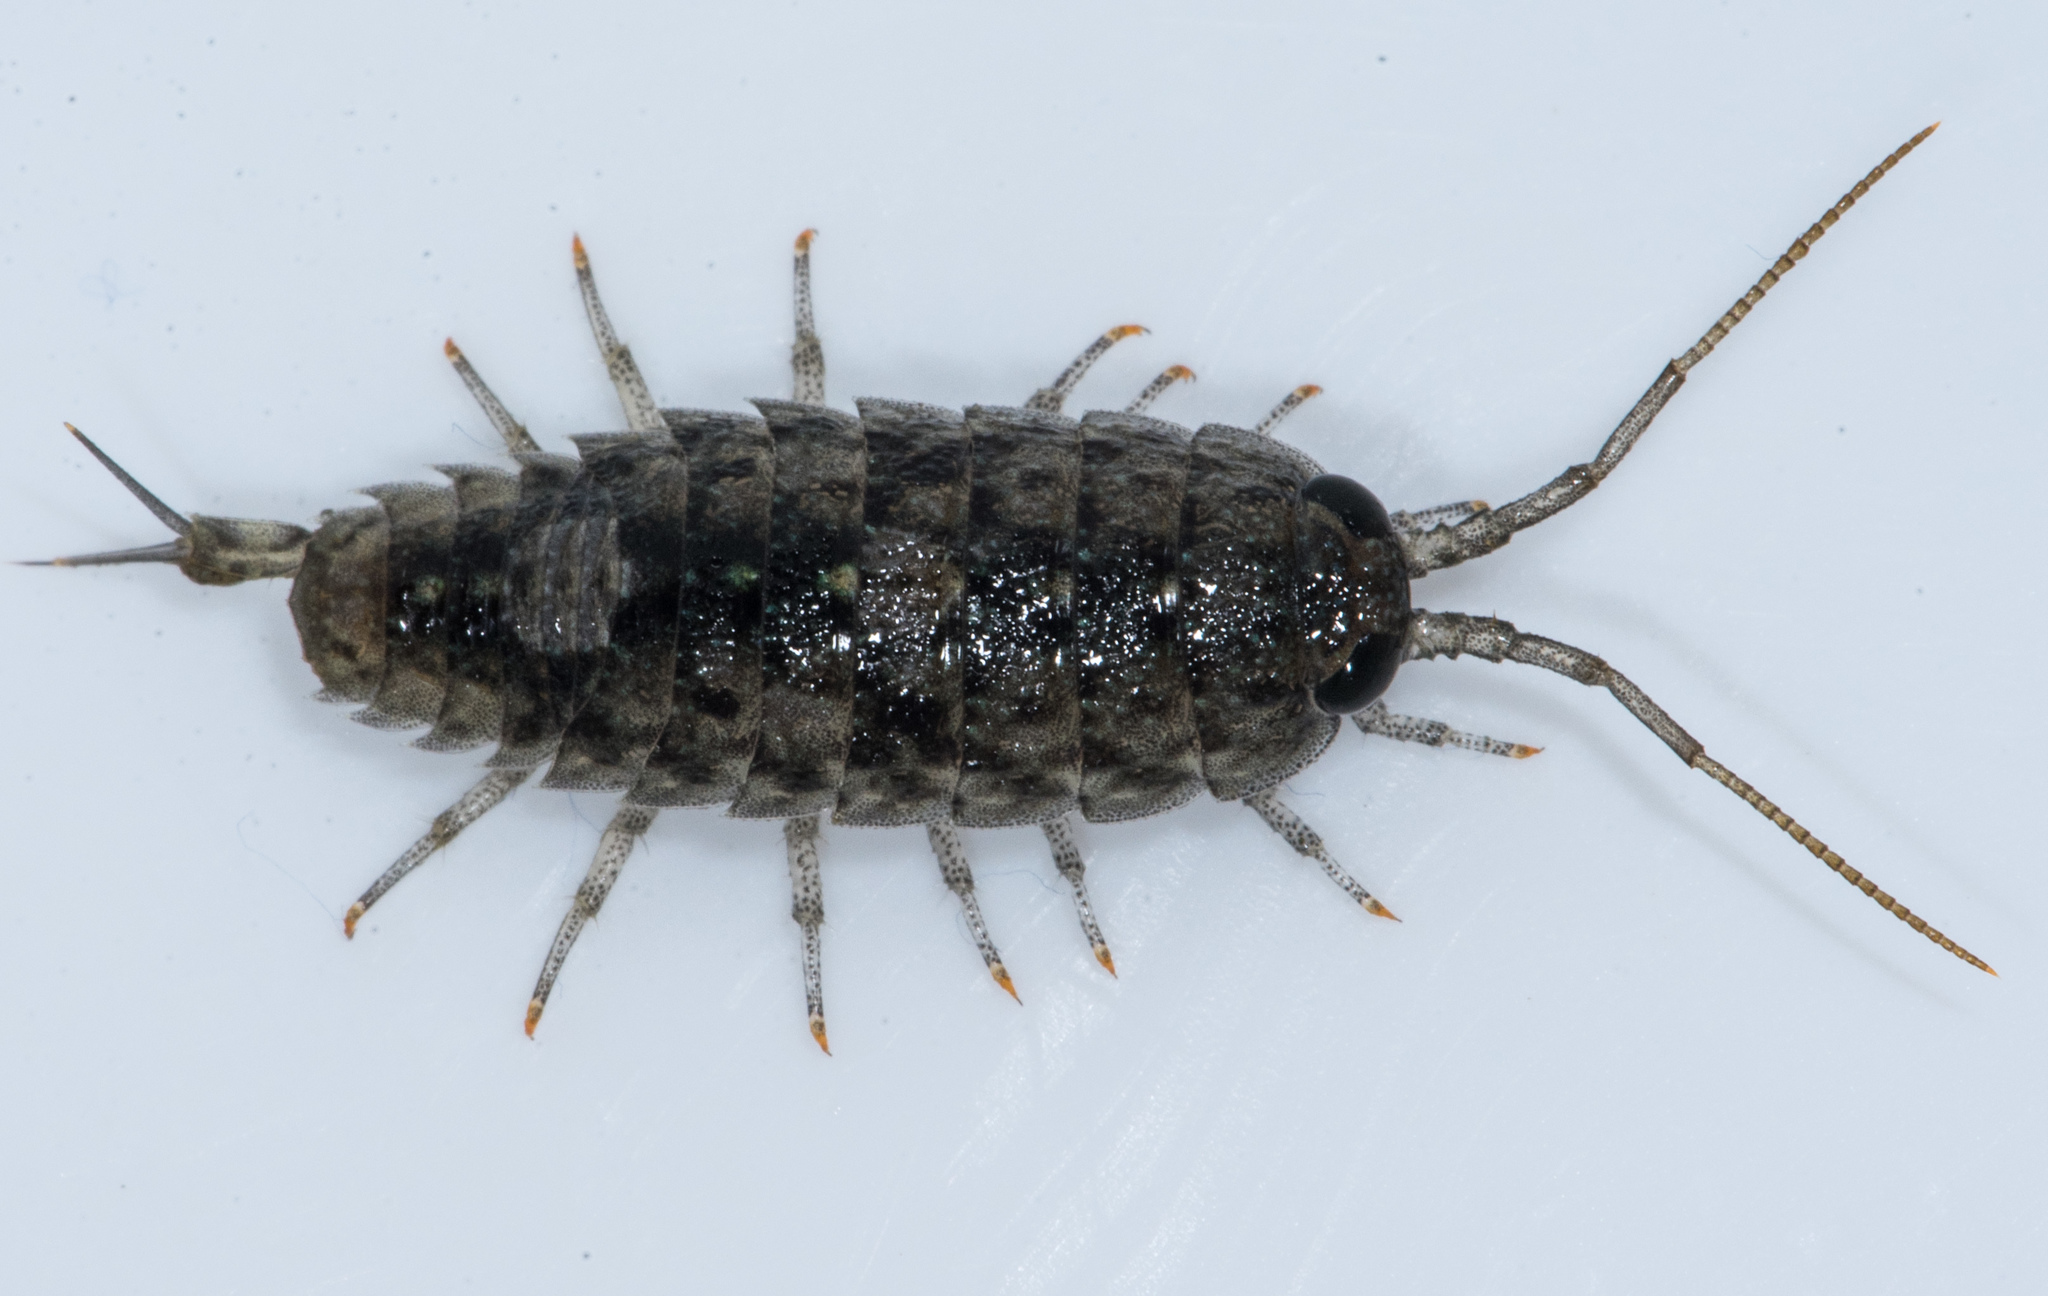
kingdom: Animalia
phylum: Arthropoda
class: Malacostraca
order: Isopoda
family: Ligiidae
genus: Ligia
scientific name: Ligia occidentalis
